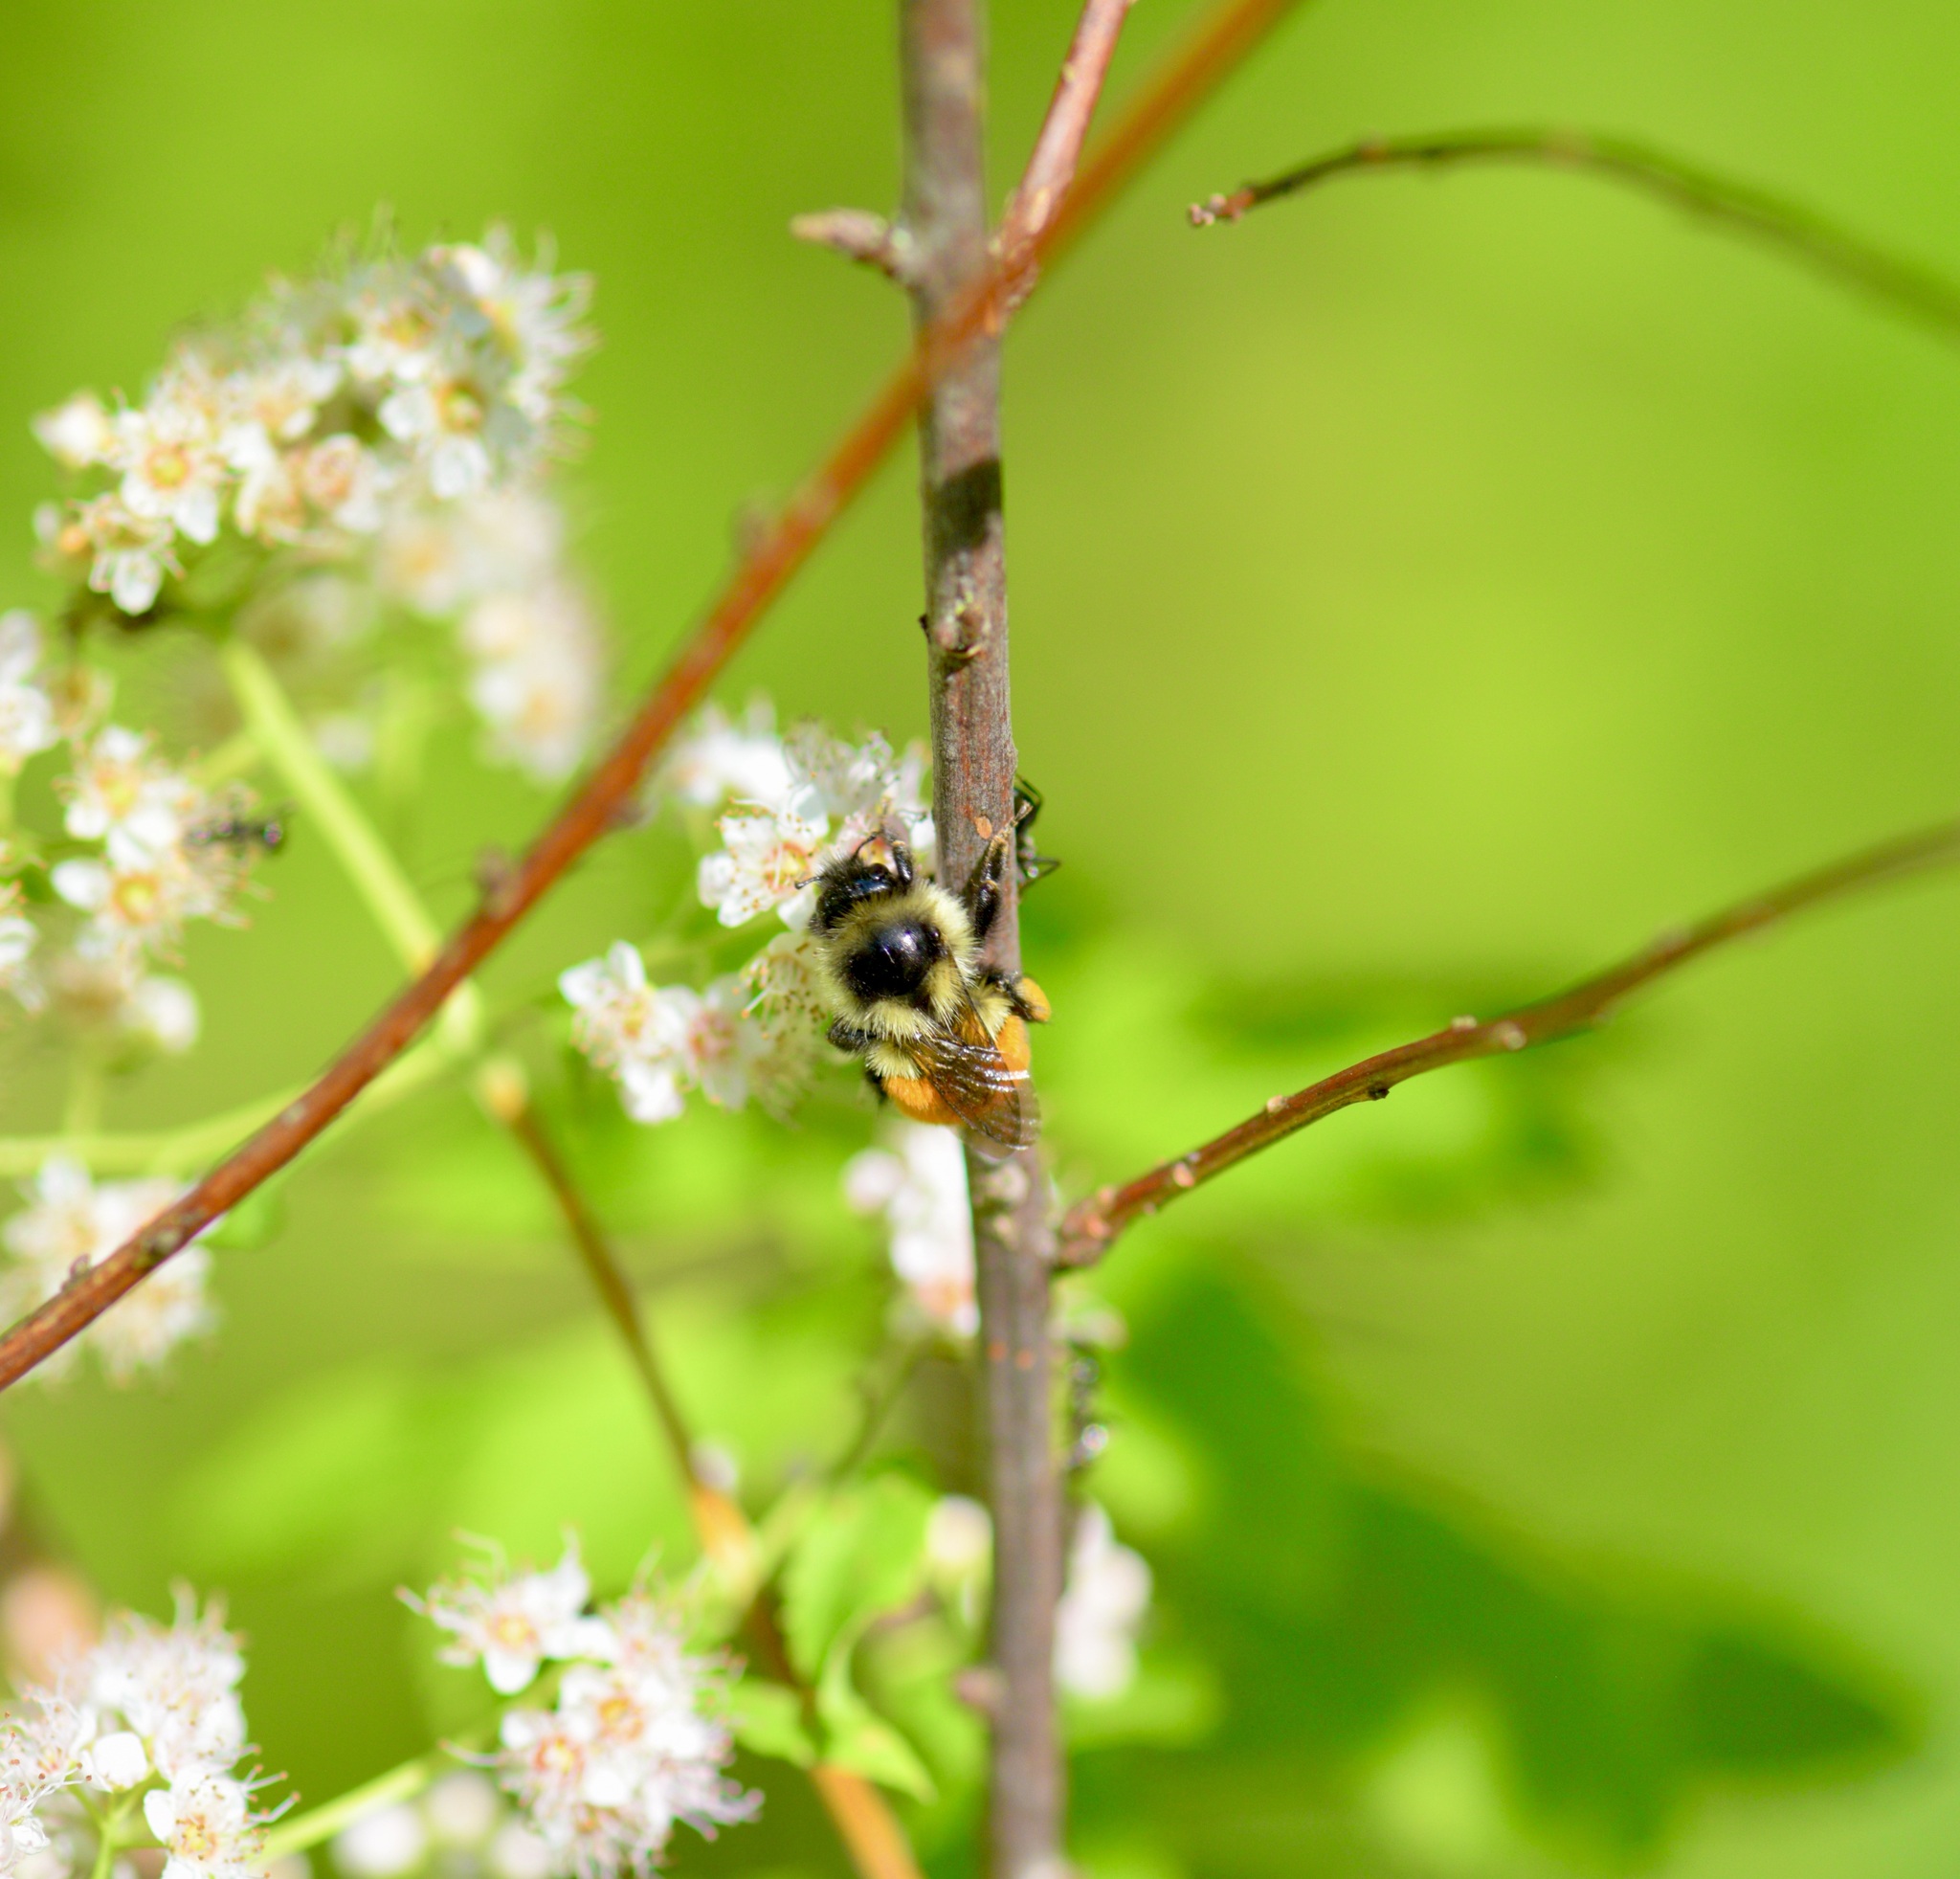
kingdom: Animalia
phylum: Arthropoda
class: Insecta
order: Hymenoptera
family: Apidae
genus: Bombus
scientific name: Bombus ternarius
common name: Tri-colored bumble bee
